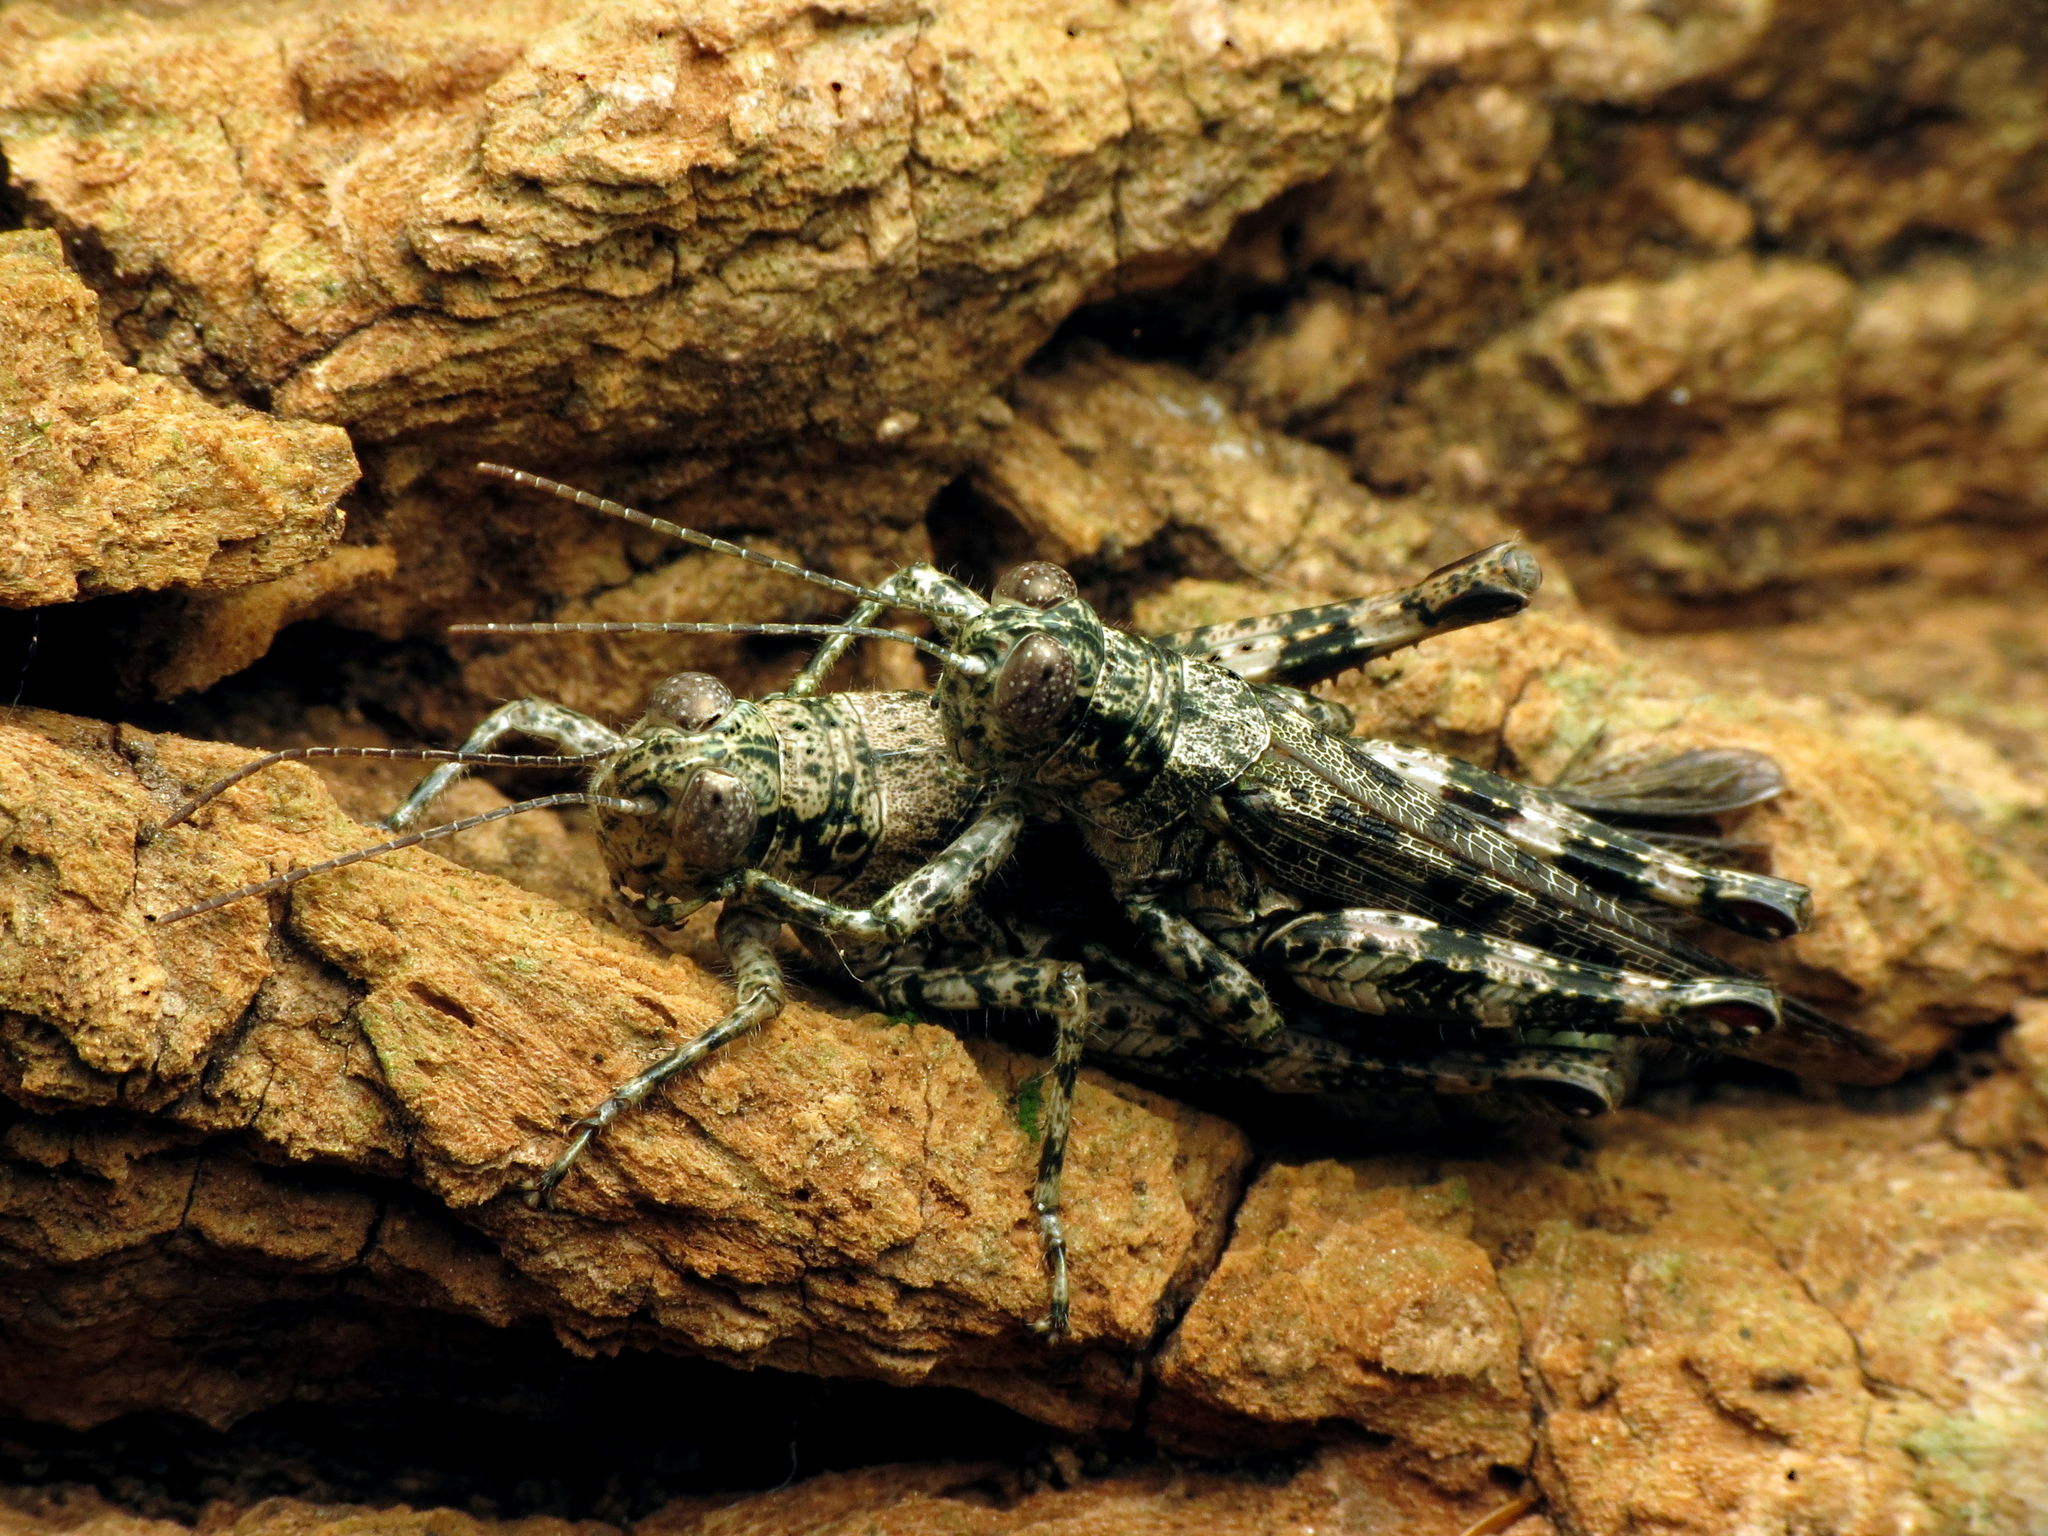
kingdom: Animalia
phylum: Arthropoda
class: Insecta
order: Orthoptera
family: Acrididae
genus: Melanoplus
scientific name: Melanoplus punctulatus
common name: Pine-tree spur-throat grasshopper
